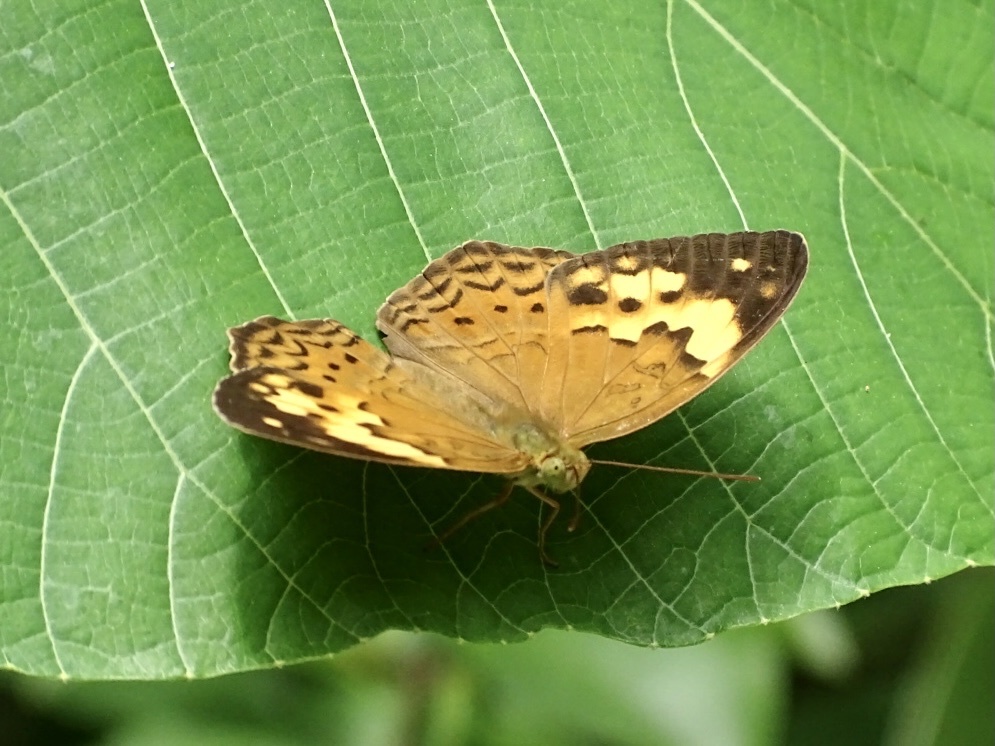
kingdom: Animalia
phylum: Arthropoda
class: Insecta
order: Lepidoptera
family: Nymphalidae
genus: Cupha
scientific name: Cupha erymanthis
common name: Rustic
